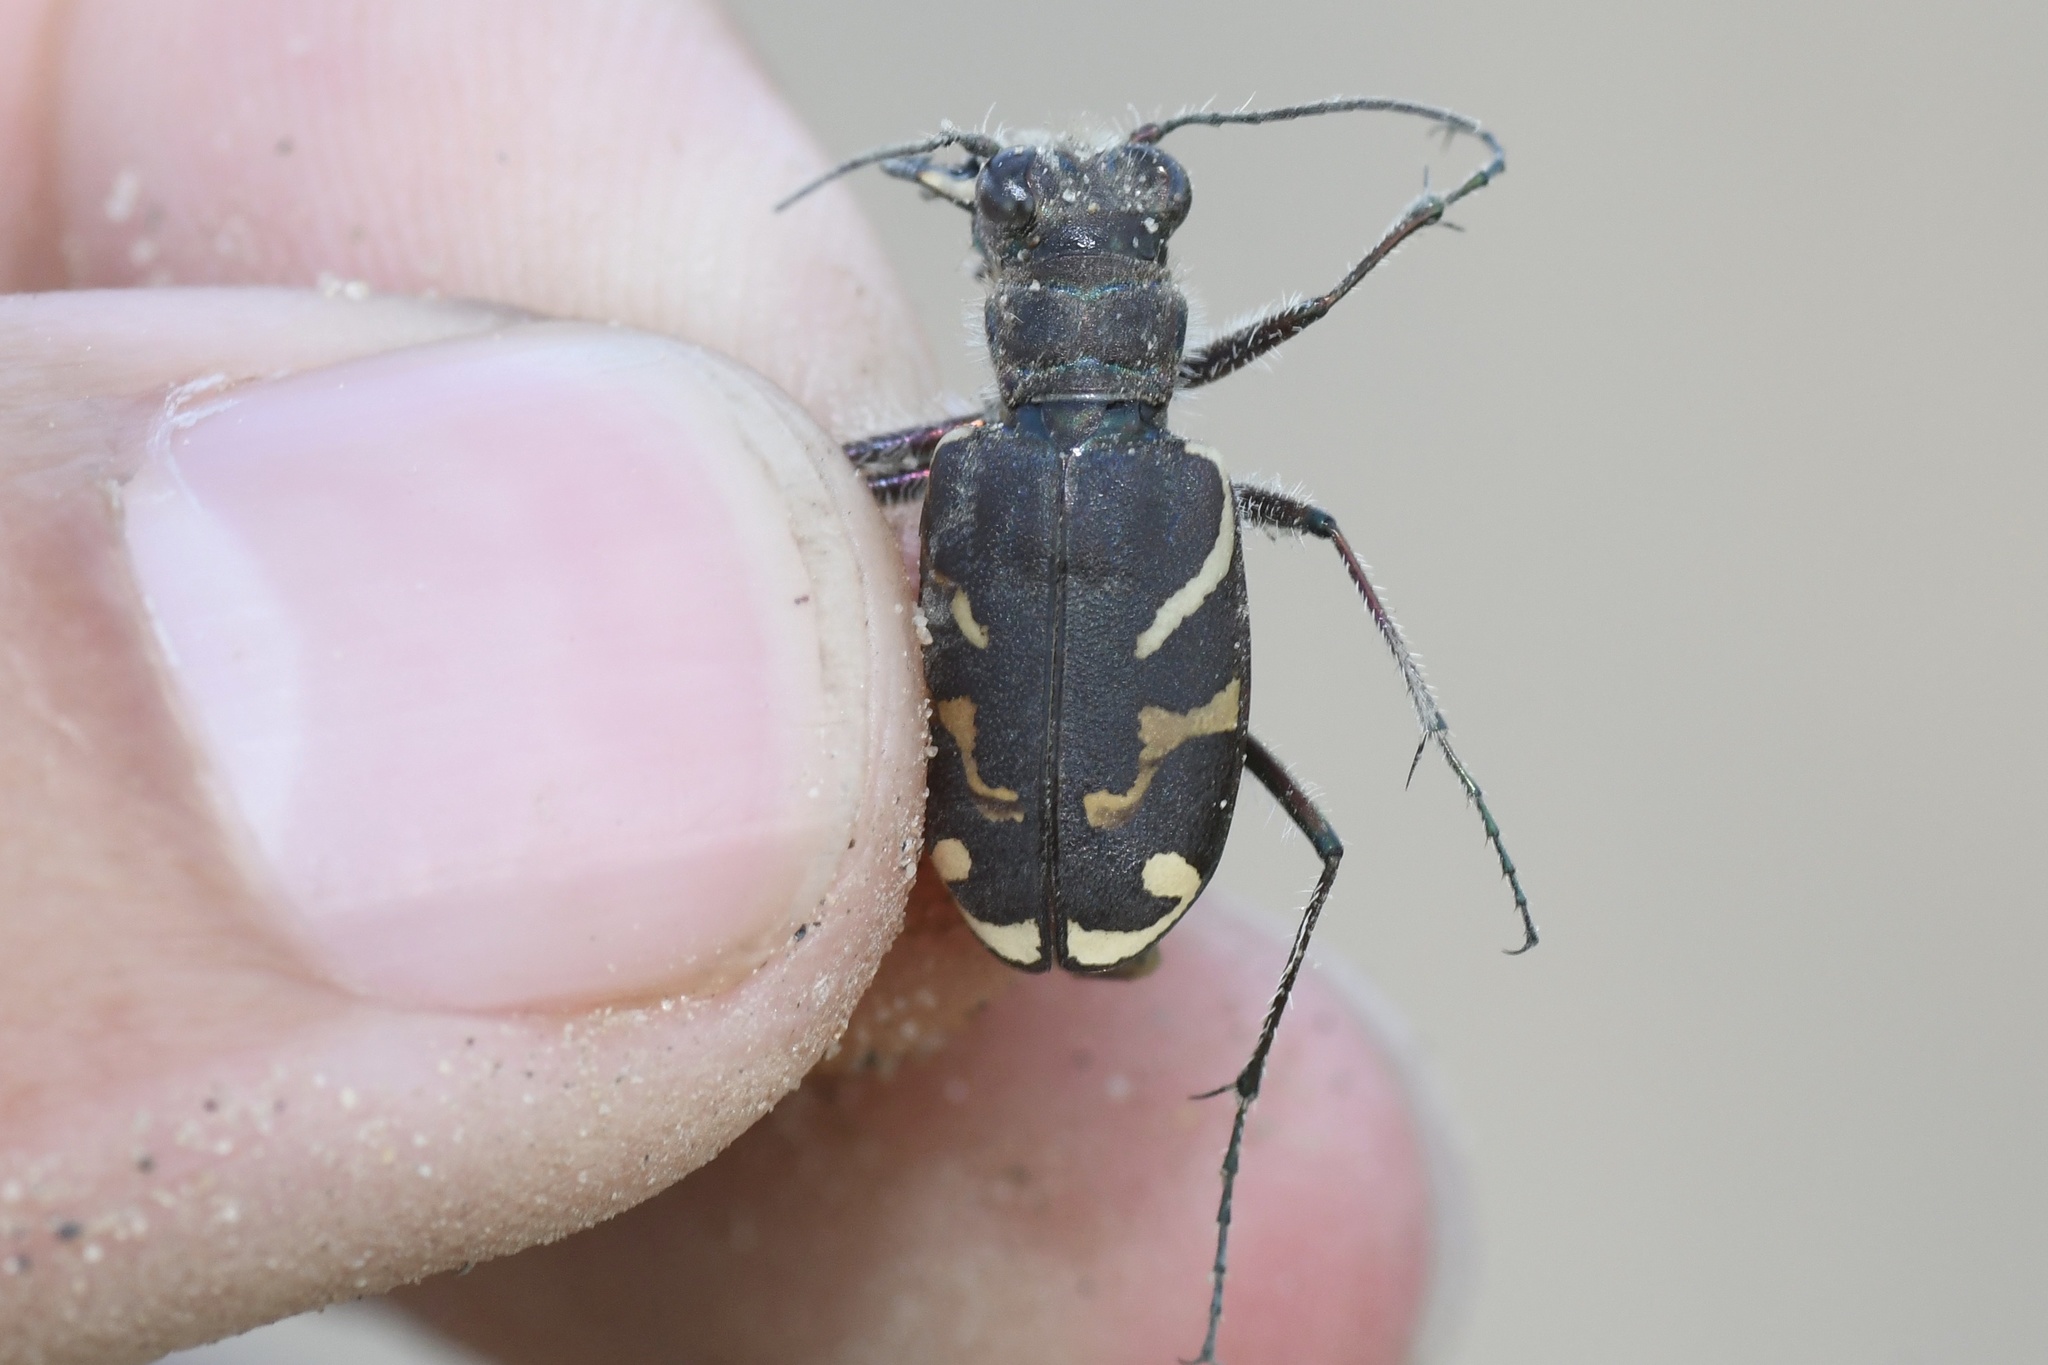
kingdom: Animalia
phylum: Arthropoda
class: Insecta
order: Coleoptera
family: Carabidae
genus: Cicindela
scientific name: Cicindela tranquebarica
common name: Oblique-lined tiger beetle
